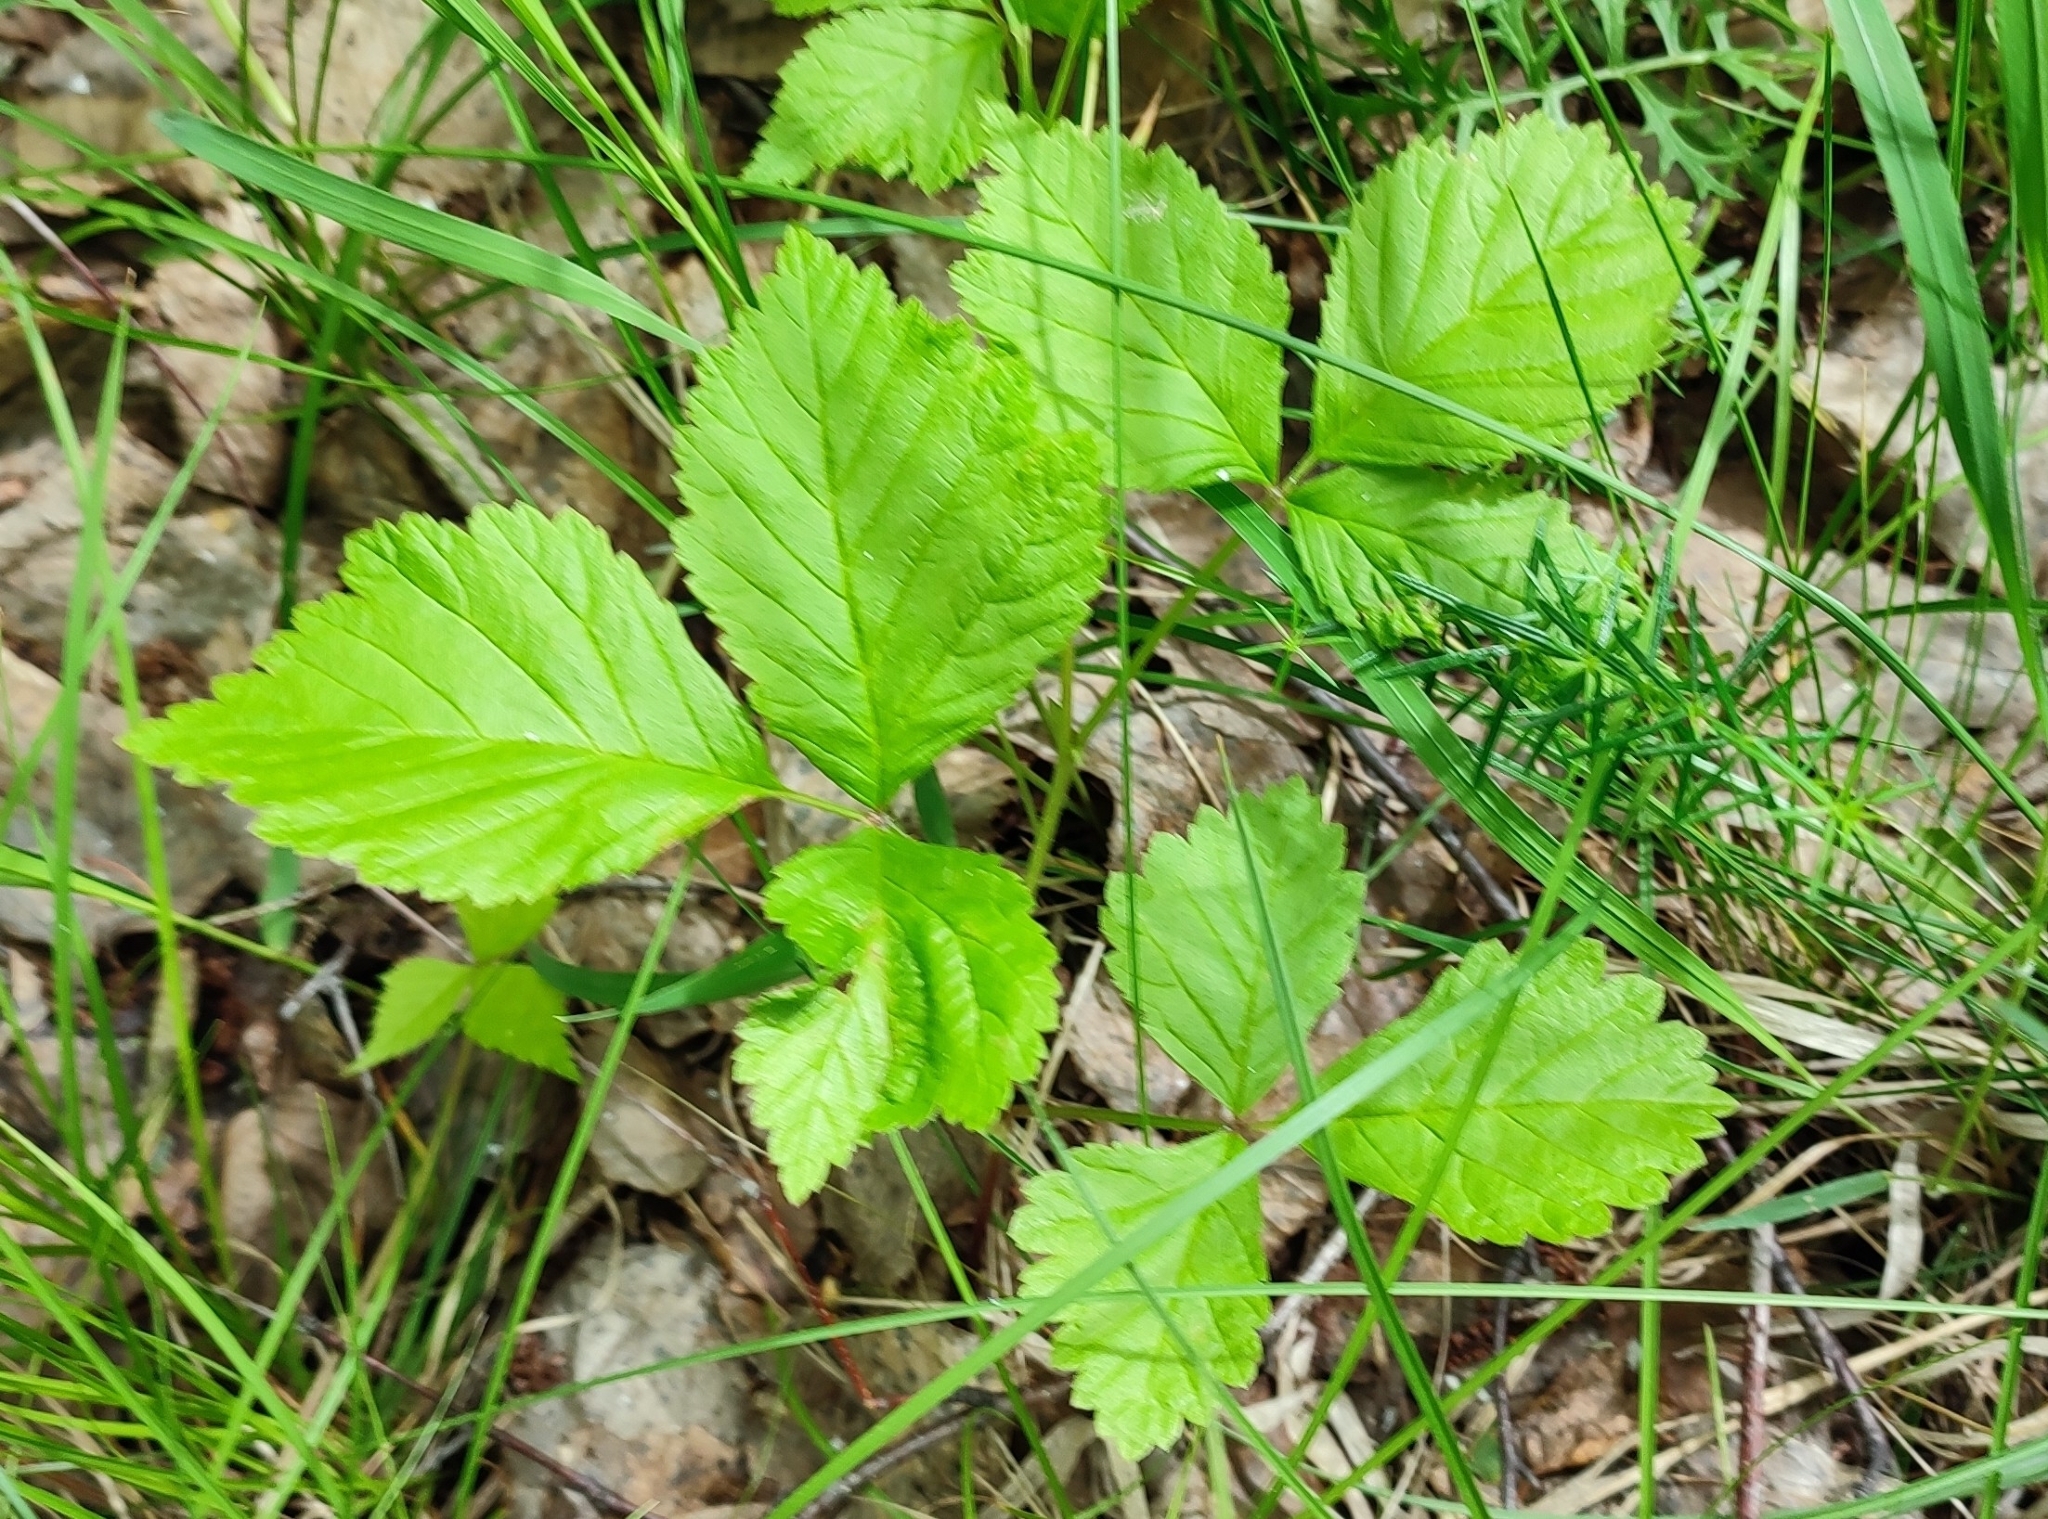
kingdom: Plantae
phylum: Tracheophyta
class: Magnoliopsida
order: Rosales
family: Rosaceae
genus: Rubus
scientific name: Rubus saxatilis
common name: Stone bramble
